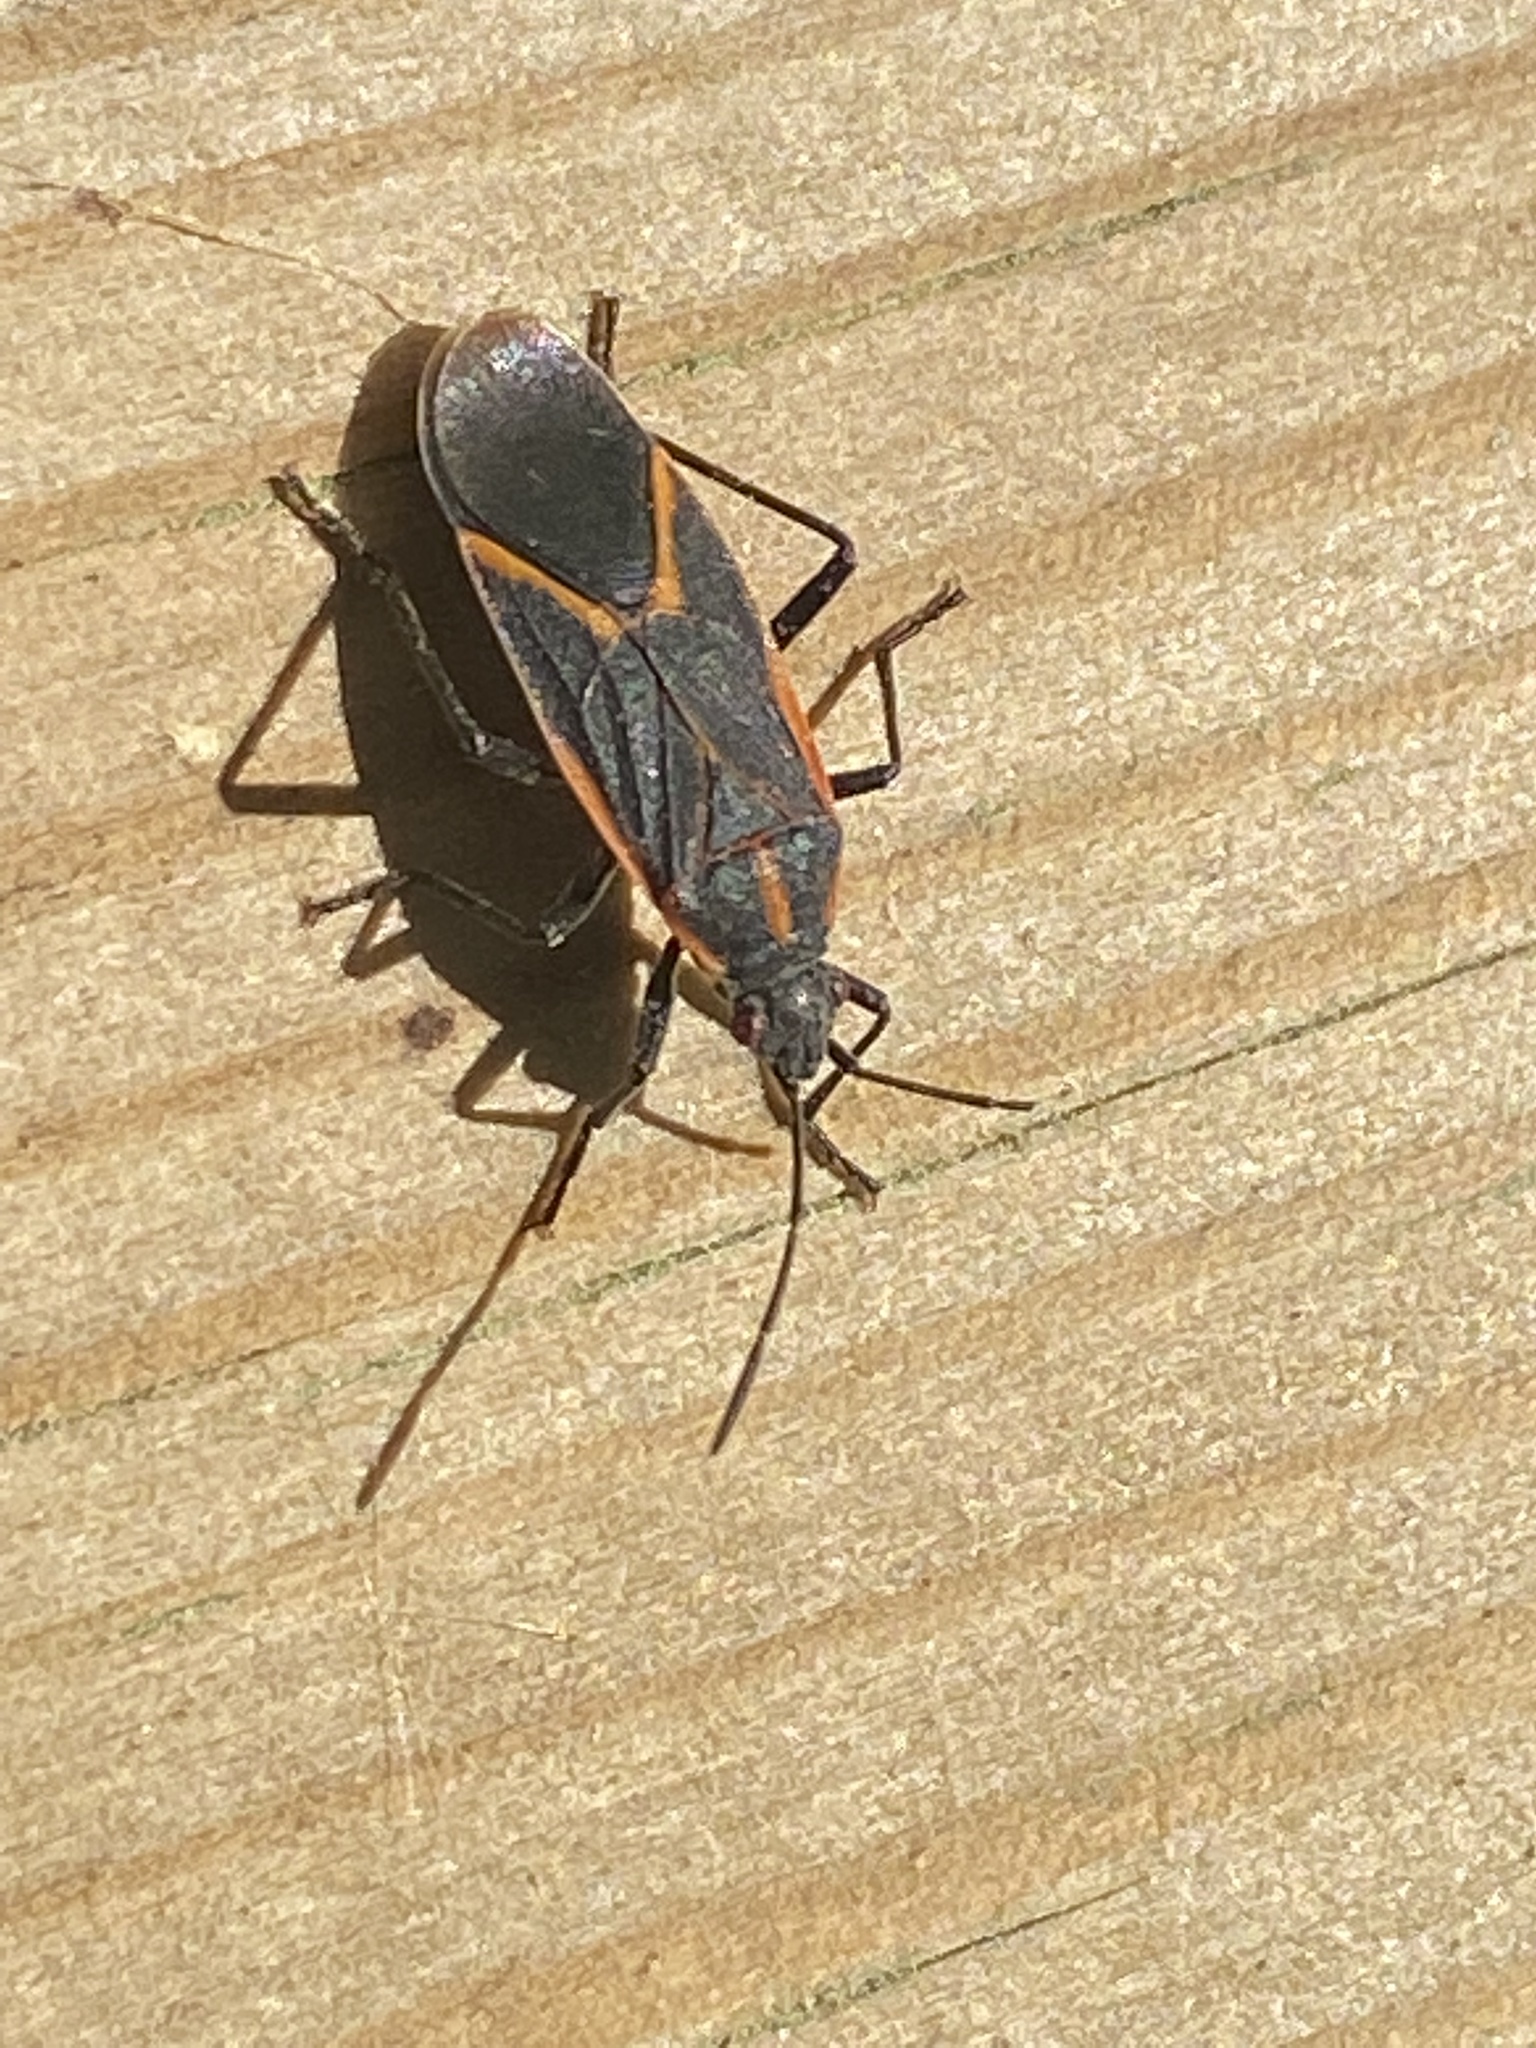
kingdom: Animalia
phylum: Arthropoda
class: Insecta
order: Hemiptera
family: Rhopalidae
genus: Boisea
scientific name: Boisea trivittata
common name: Boxelder bug
